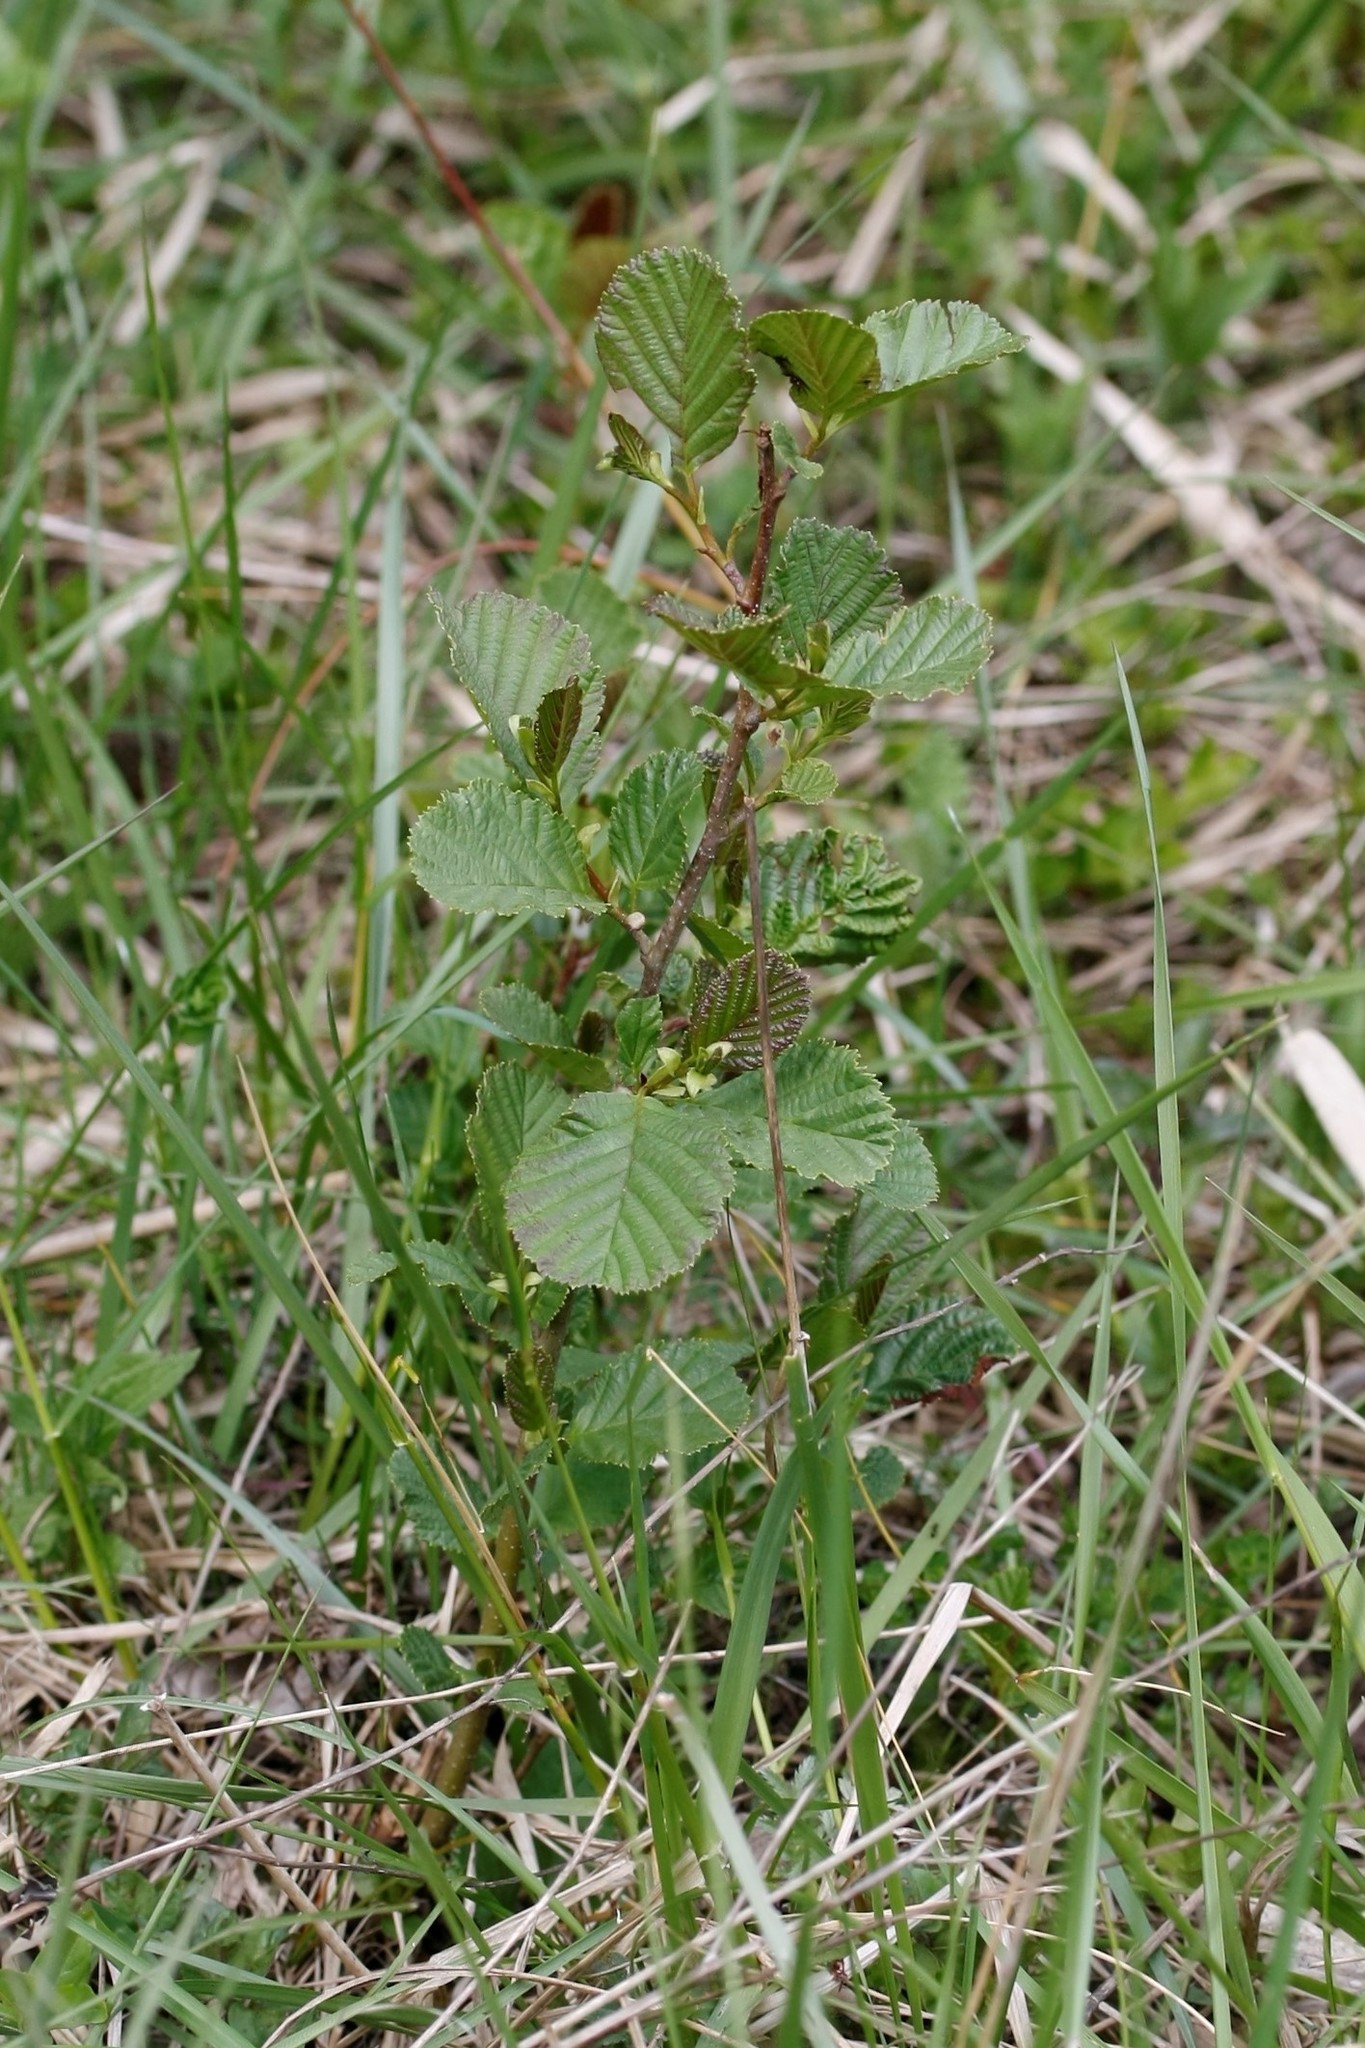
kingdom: Plantae
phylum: Tracheophyta
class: Magnoliopsida
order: Fagales
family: Betulaceae
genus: Alnus
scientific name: Alnus glutinosa
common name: Black alder
